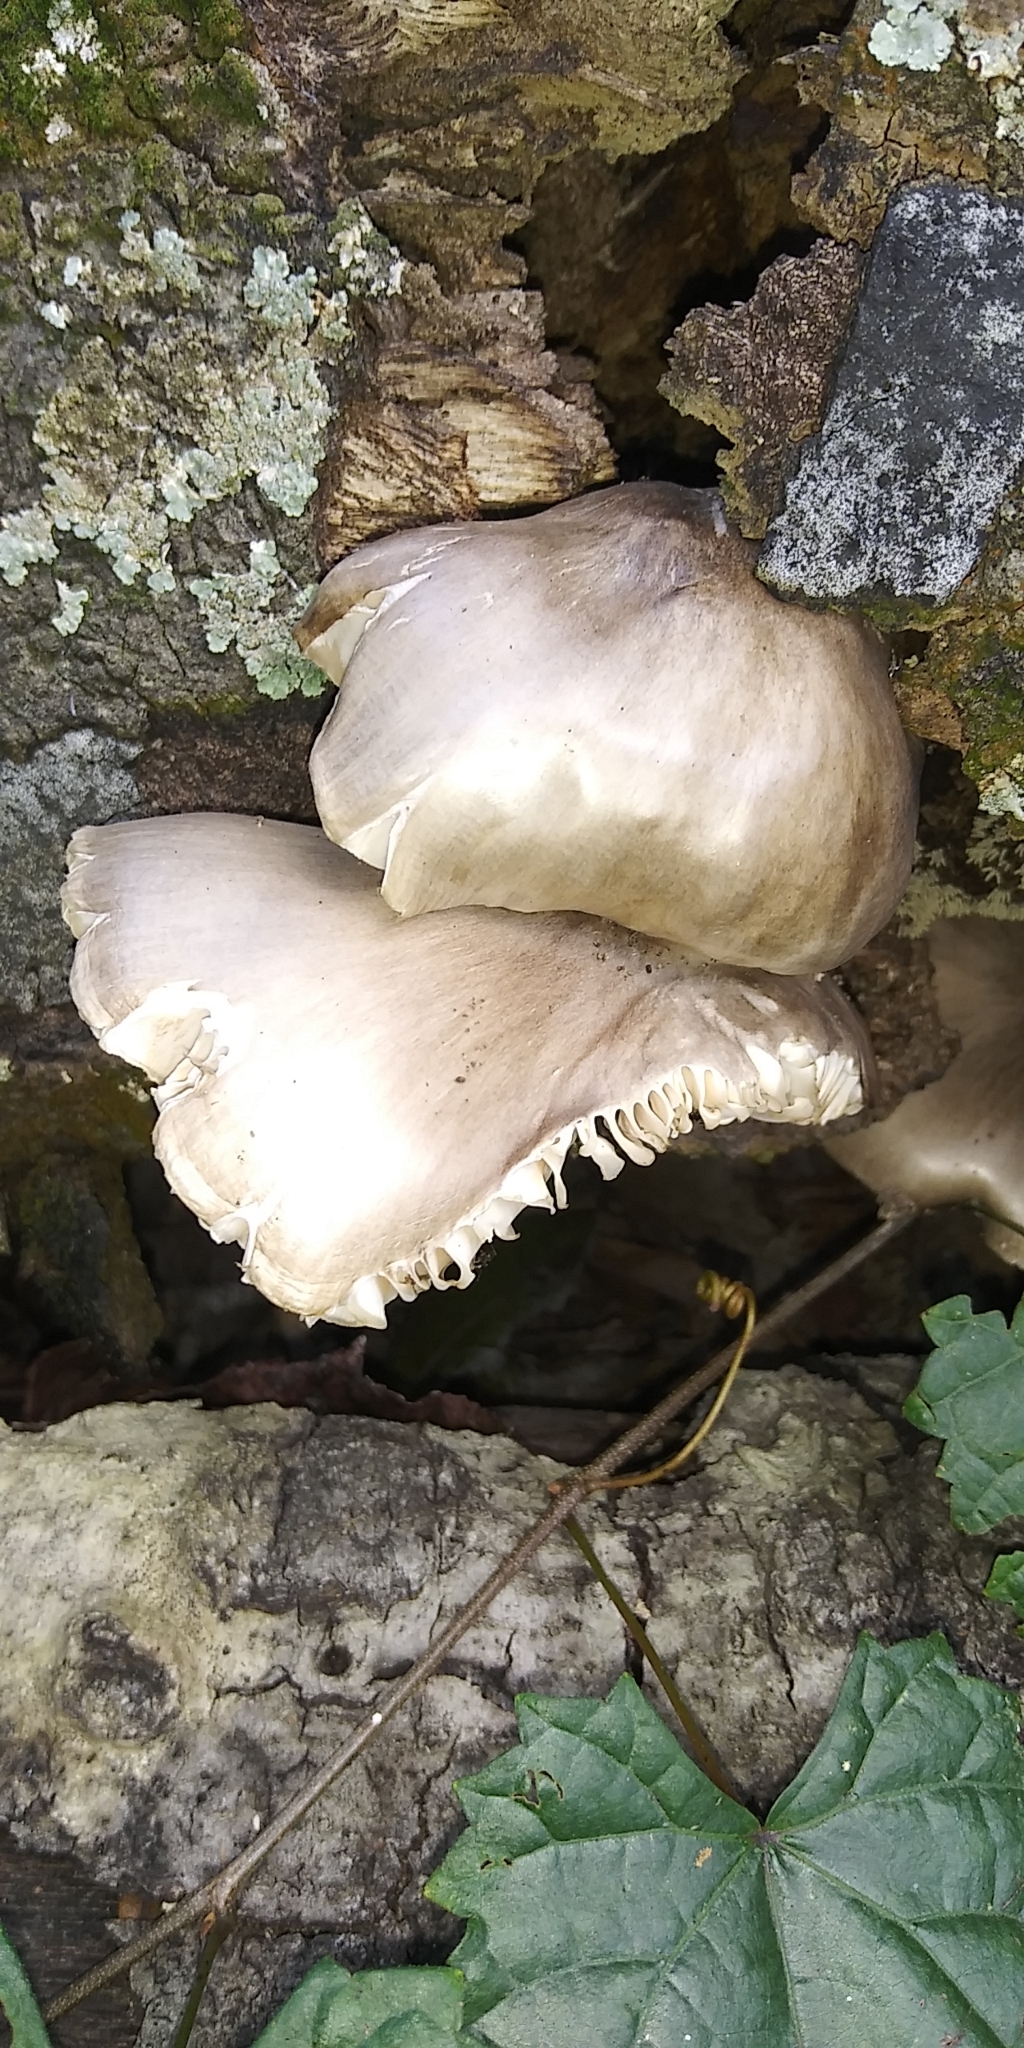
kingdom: Fungi
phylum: Basidiomycota
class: Agaricomycetes
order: Agaricales
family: Pluteaceae
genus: Pluteus
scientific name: Pluteus cervinus
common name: Deer shield
